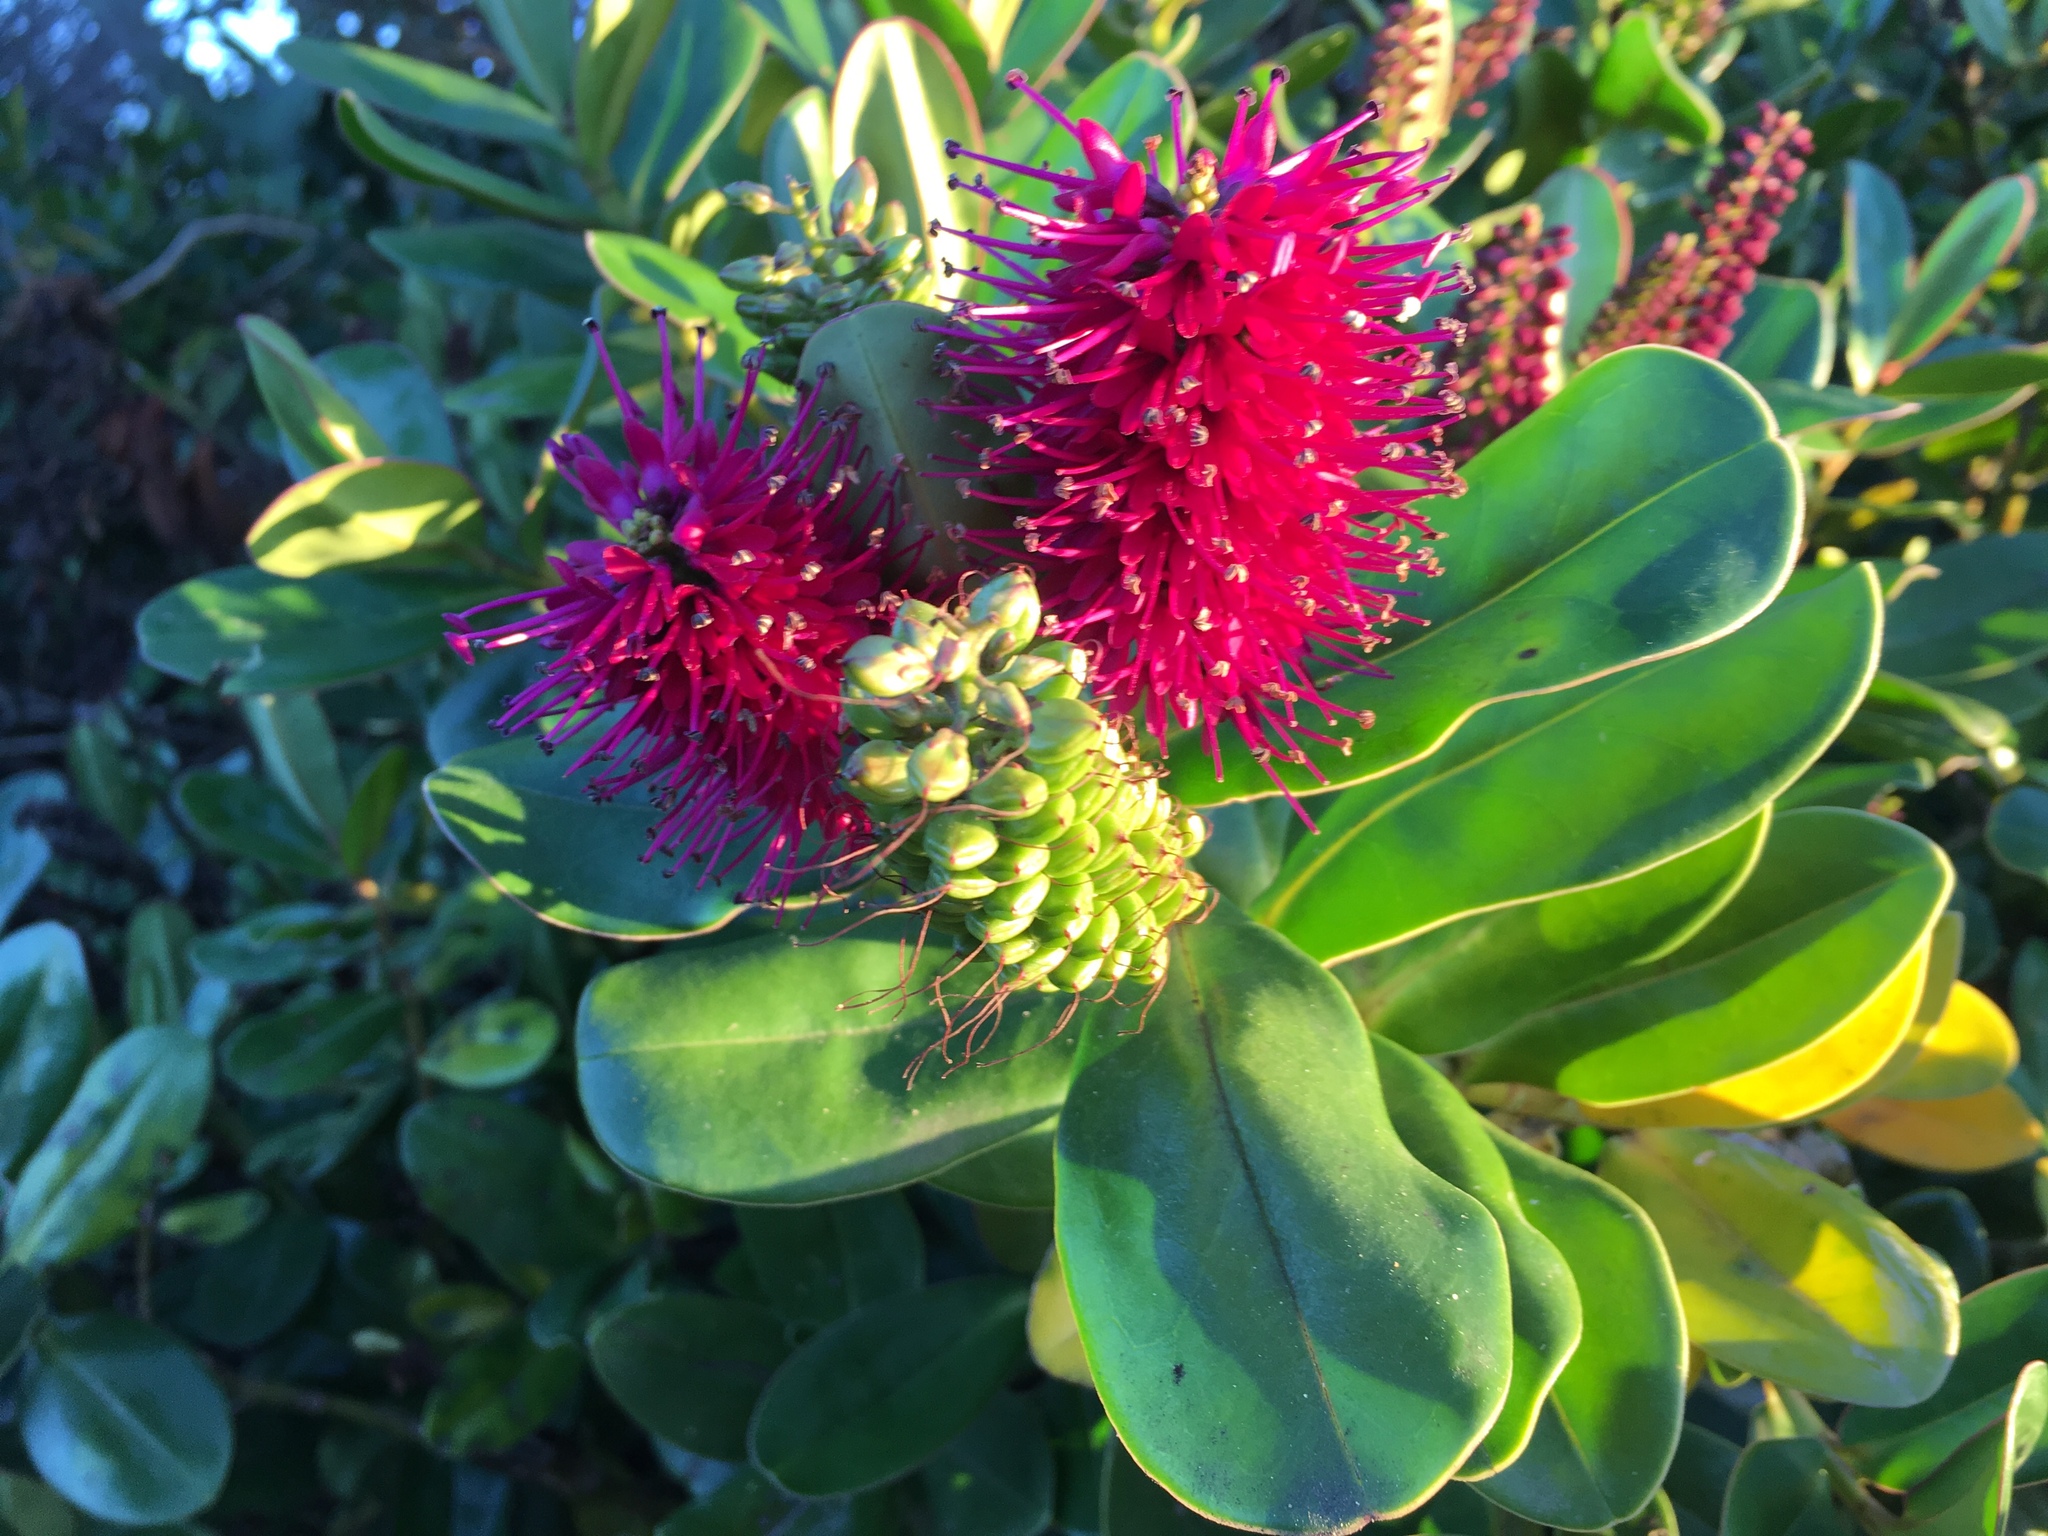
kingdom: Plantae
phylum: Tracheophyta
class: Magnoliopsida
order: Lamiales
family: Plantaginaceae
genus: Veronica
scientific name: Veronica speciosa
